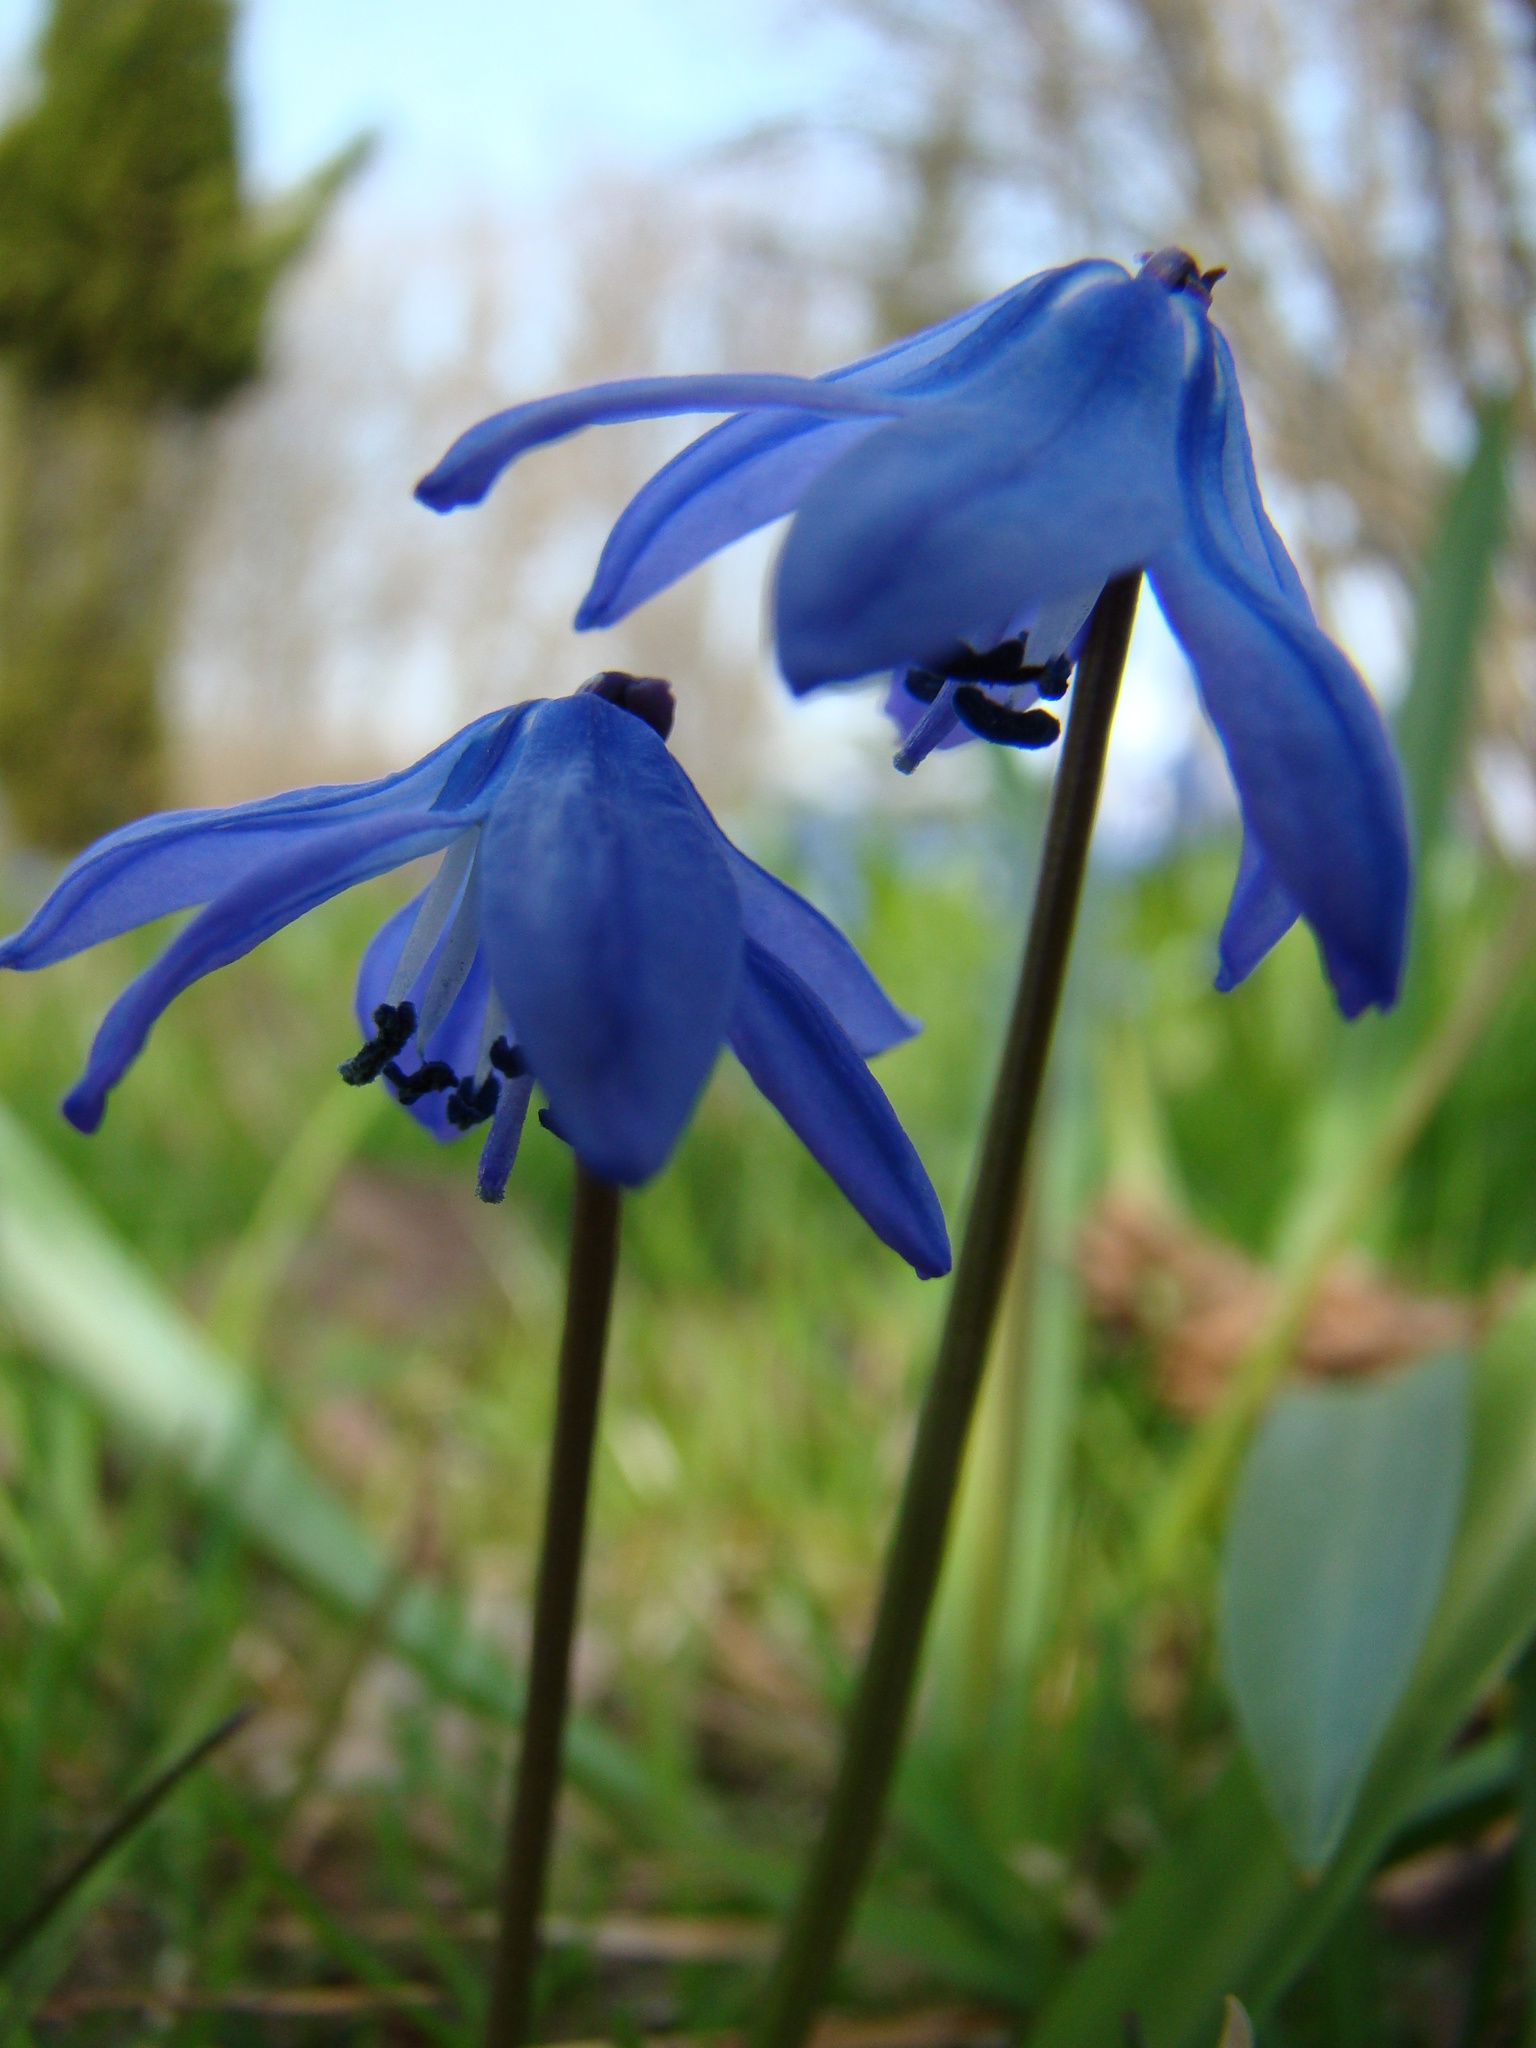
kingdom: Plantae
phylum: Tracheophyta
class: Liliopsida
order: Asparagales
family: Asparagaceae
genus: Scilla
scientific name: Scilla siberica
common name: Siberian squill
